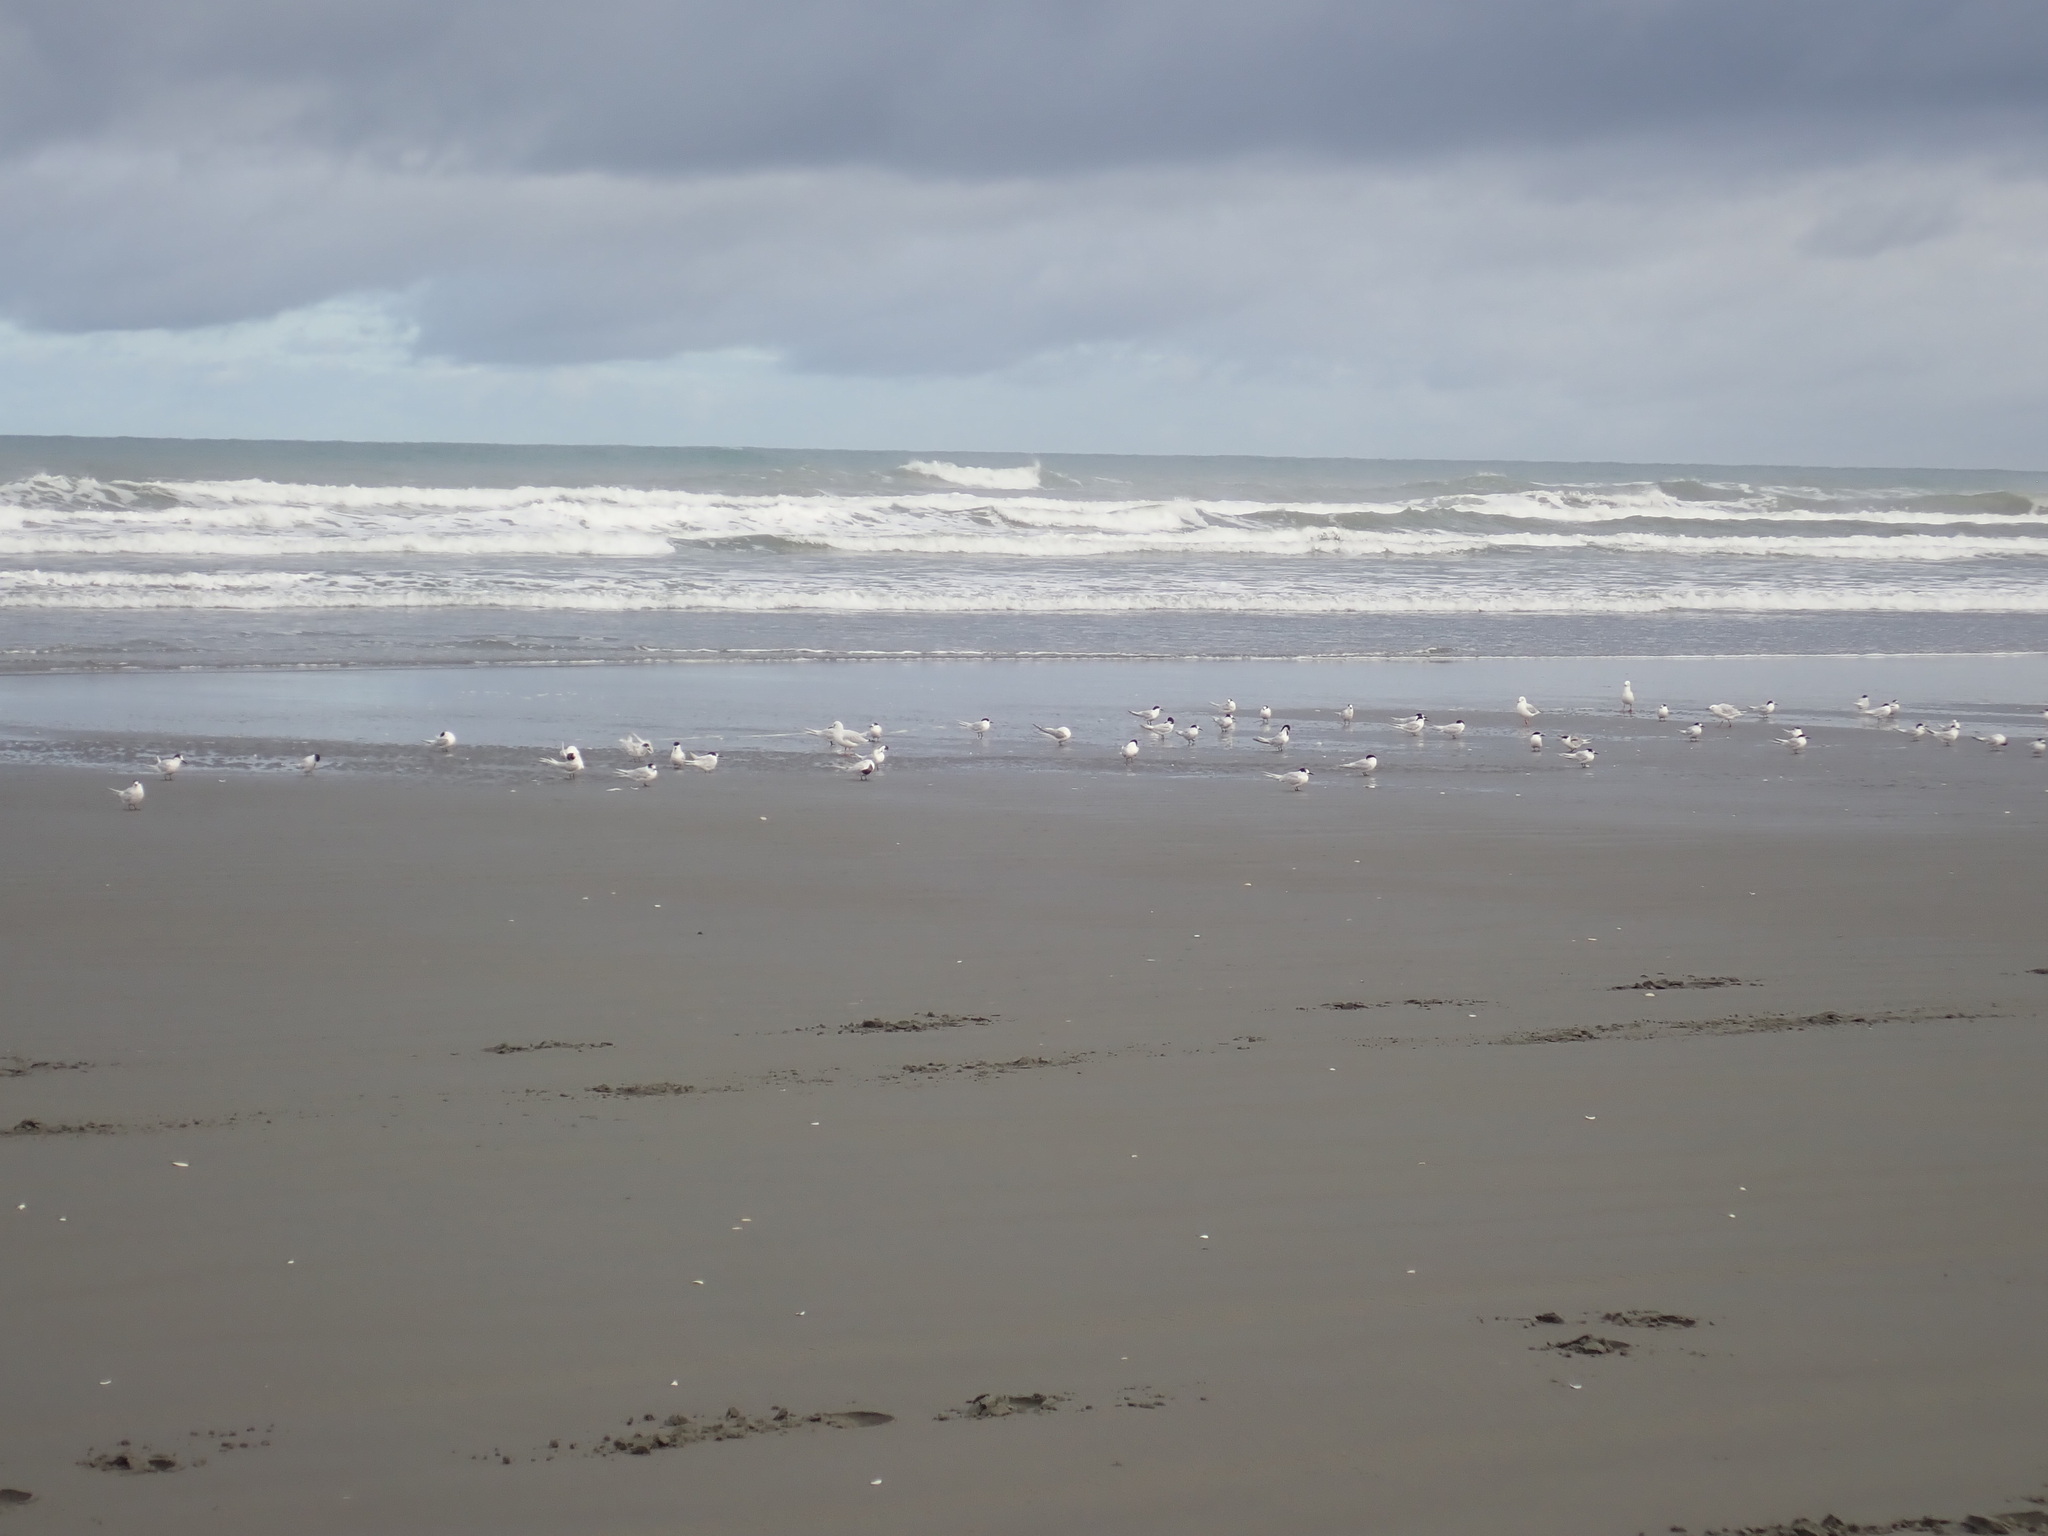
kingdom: Animalia
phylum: Chordata
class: Aves
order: Charadriiformes
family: Laridae
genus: Sterna
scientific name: Sterna striata
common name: White-fronted tern
